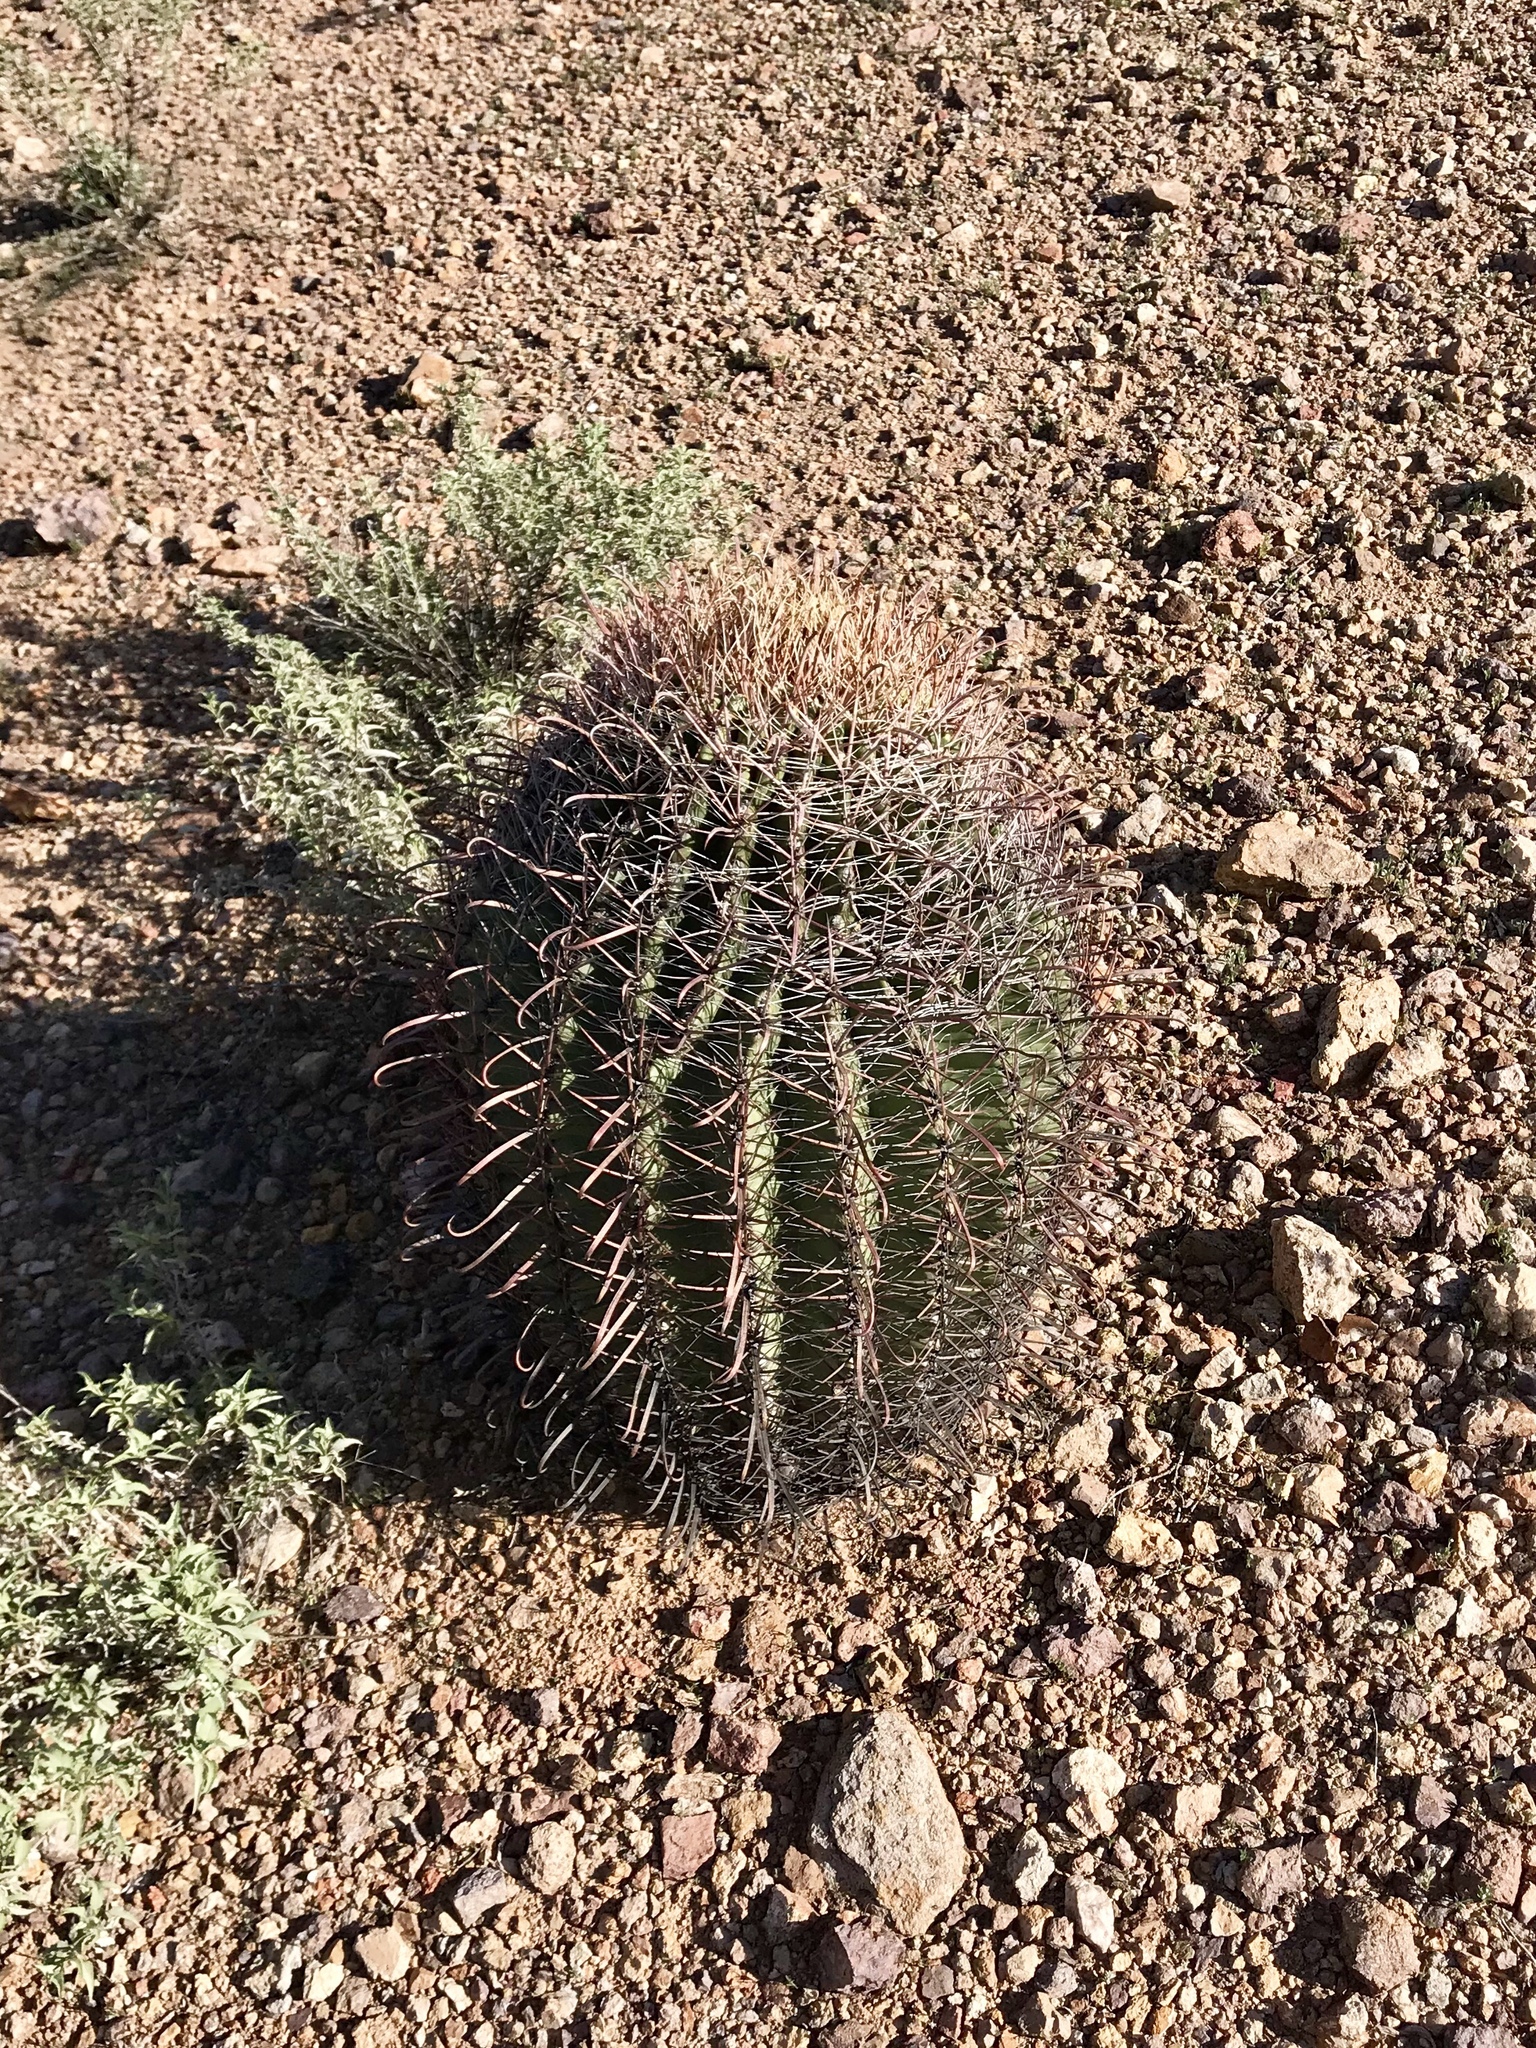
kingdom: Plantae
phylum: Tracheophyta
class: Magnoliopsida
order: Caryophyllales
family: Cactaceae
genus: Ferocactus
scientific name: Ferocactus wislizeni
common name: Candy barrel cactus
